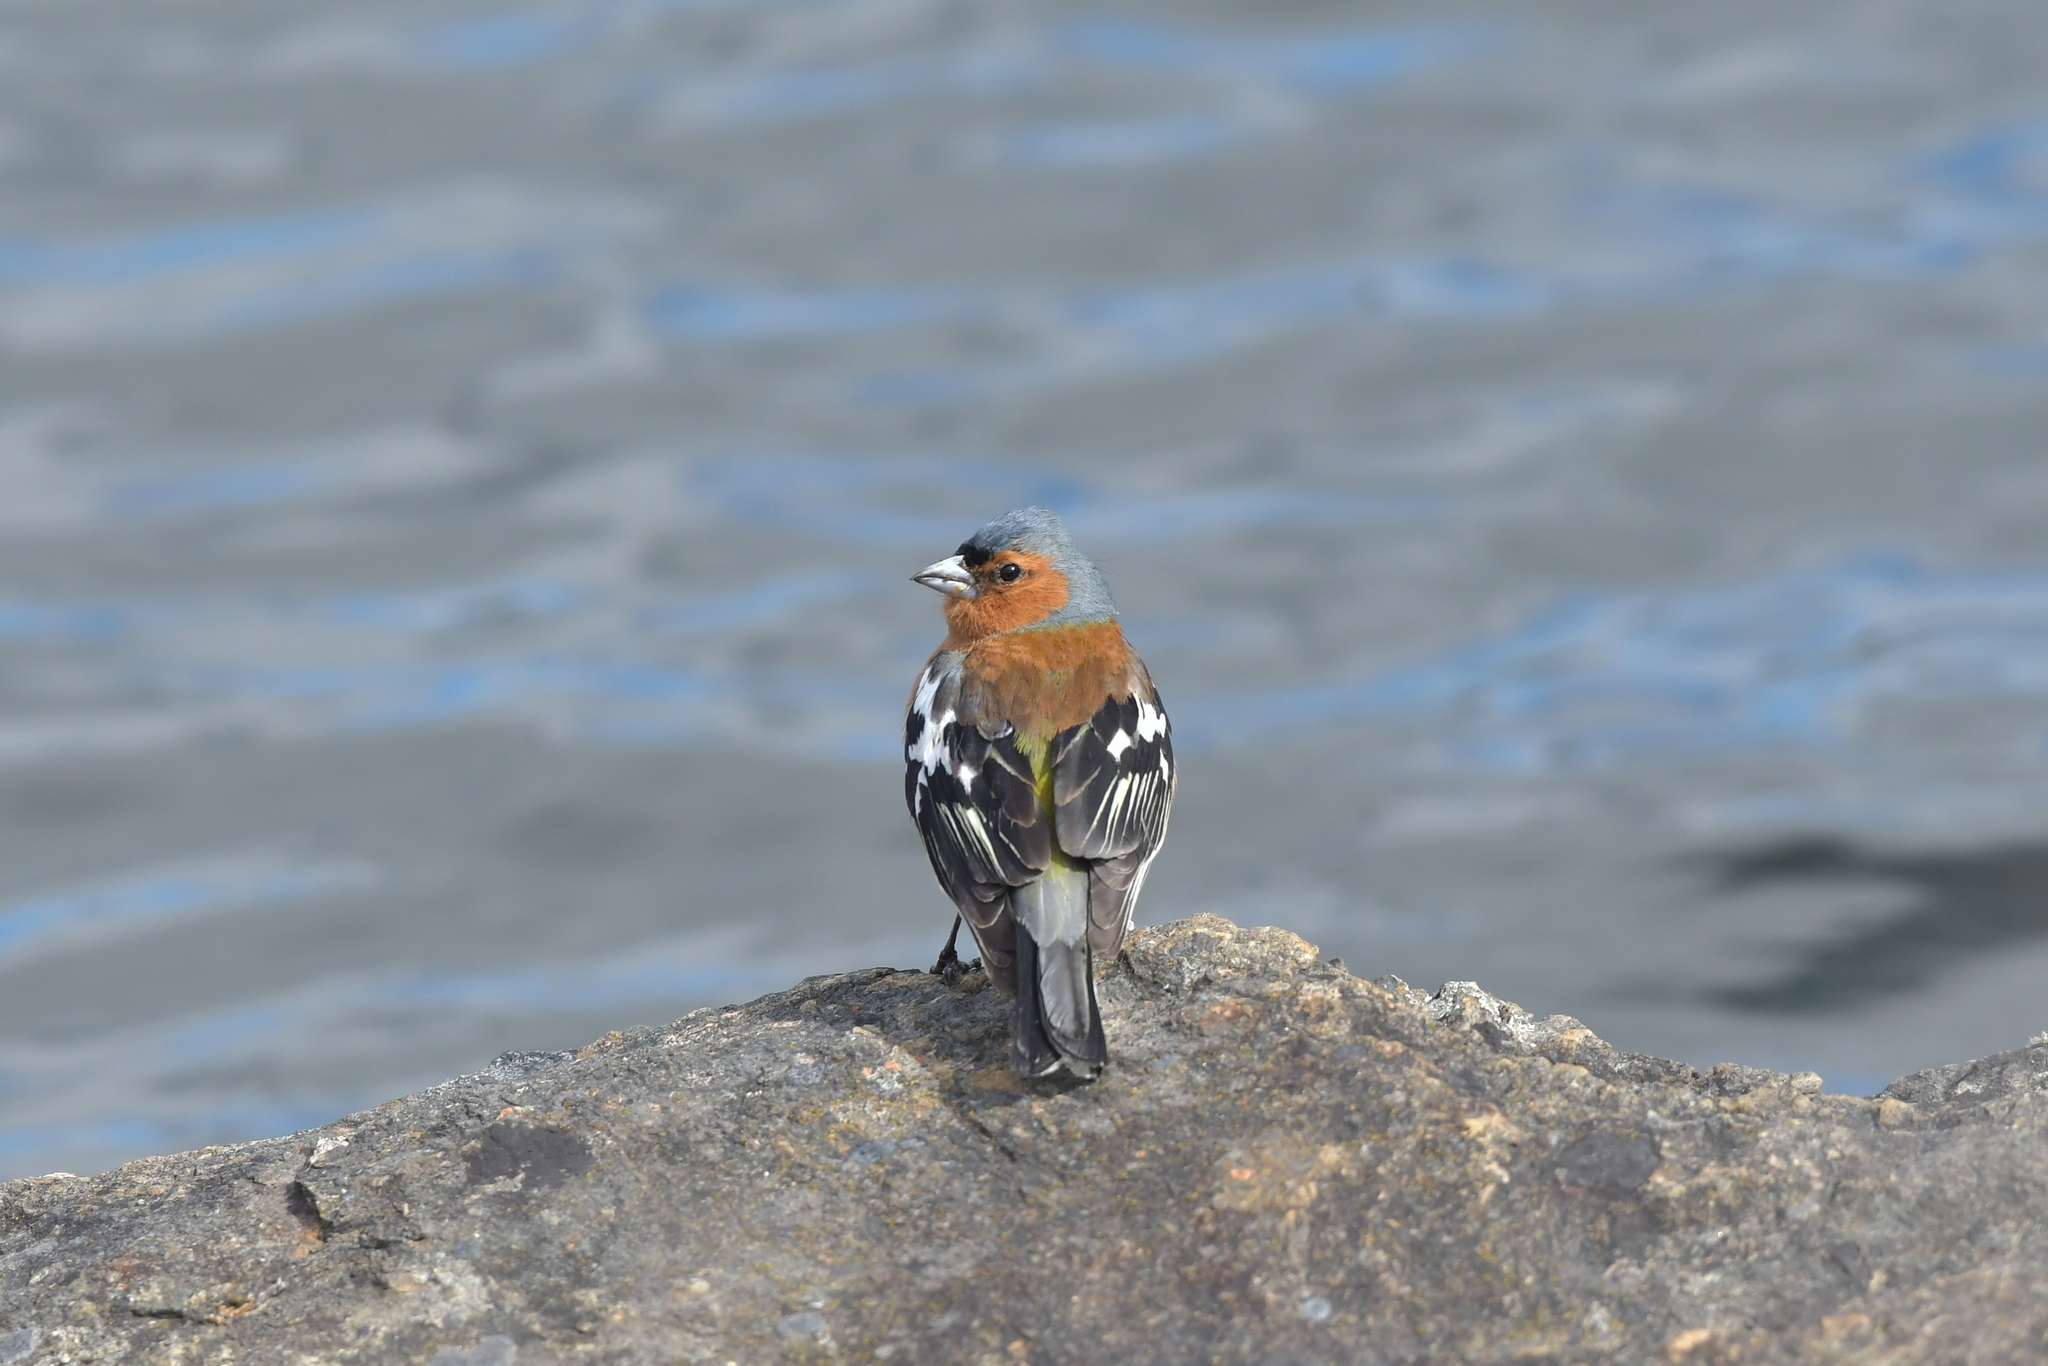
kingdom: Animalia
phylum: Chordata
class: Aves
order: Passeriformes
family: Fringillidae
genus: Fringilla
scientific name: Fringilla coelebs
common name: Common chaffinch
